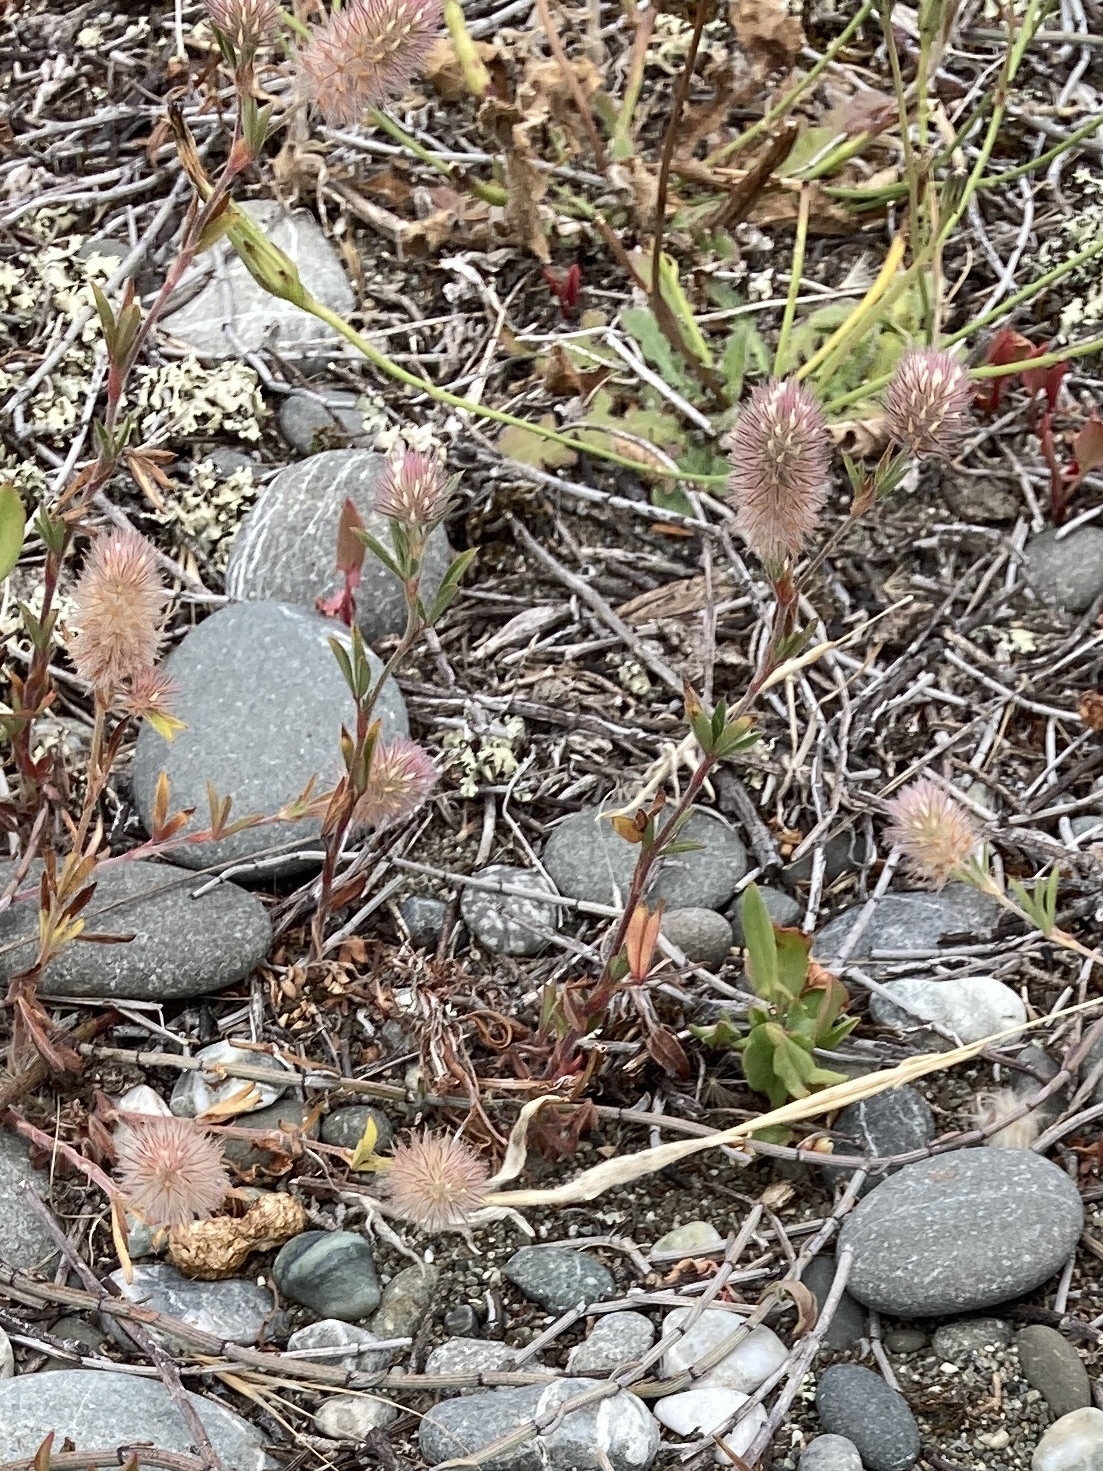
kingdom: Plantae
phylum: Tracheophyta
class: Magnoliopsida
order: Fabales
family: Fabaceae
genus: Trifolium
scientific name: Trifolium arvense
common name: Hare's-foot clover
